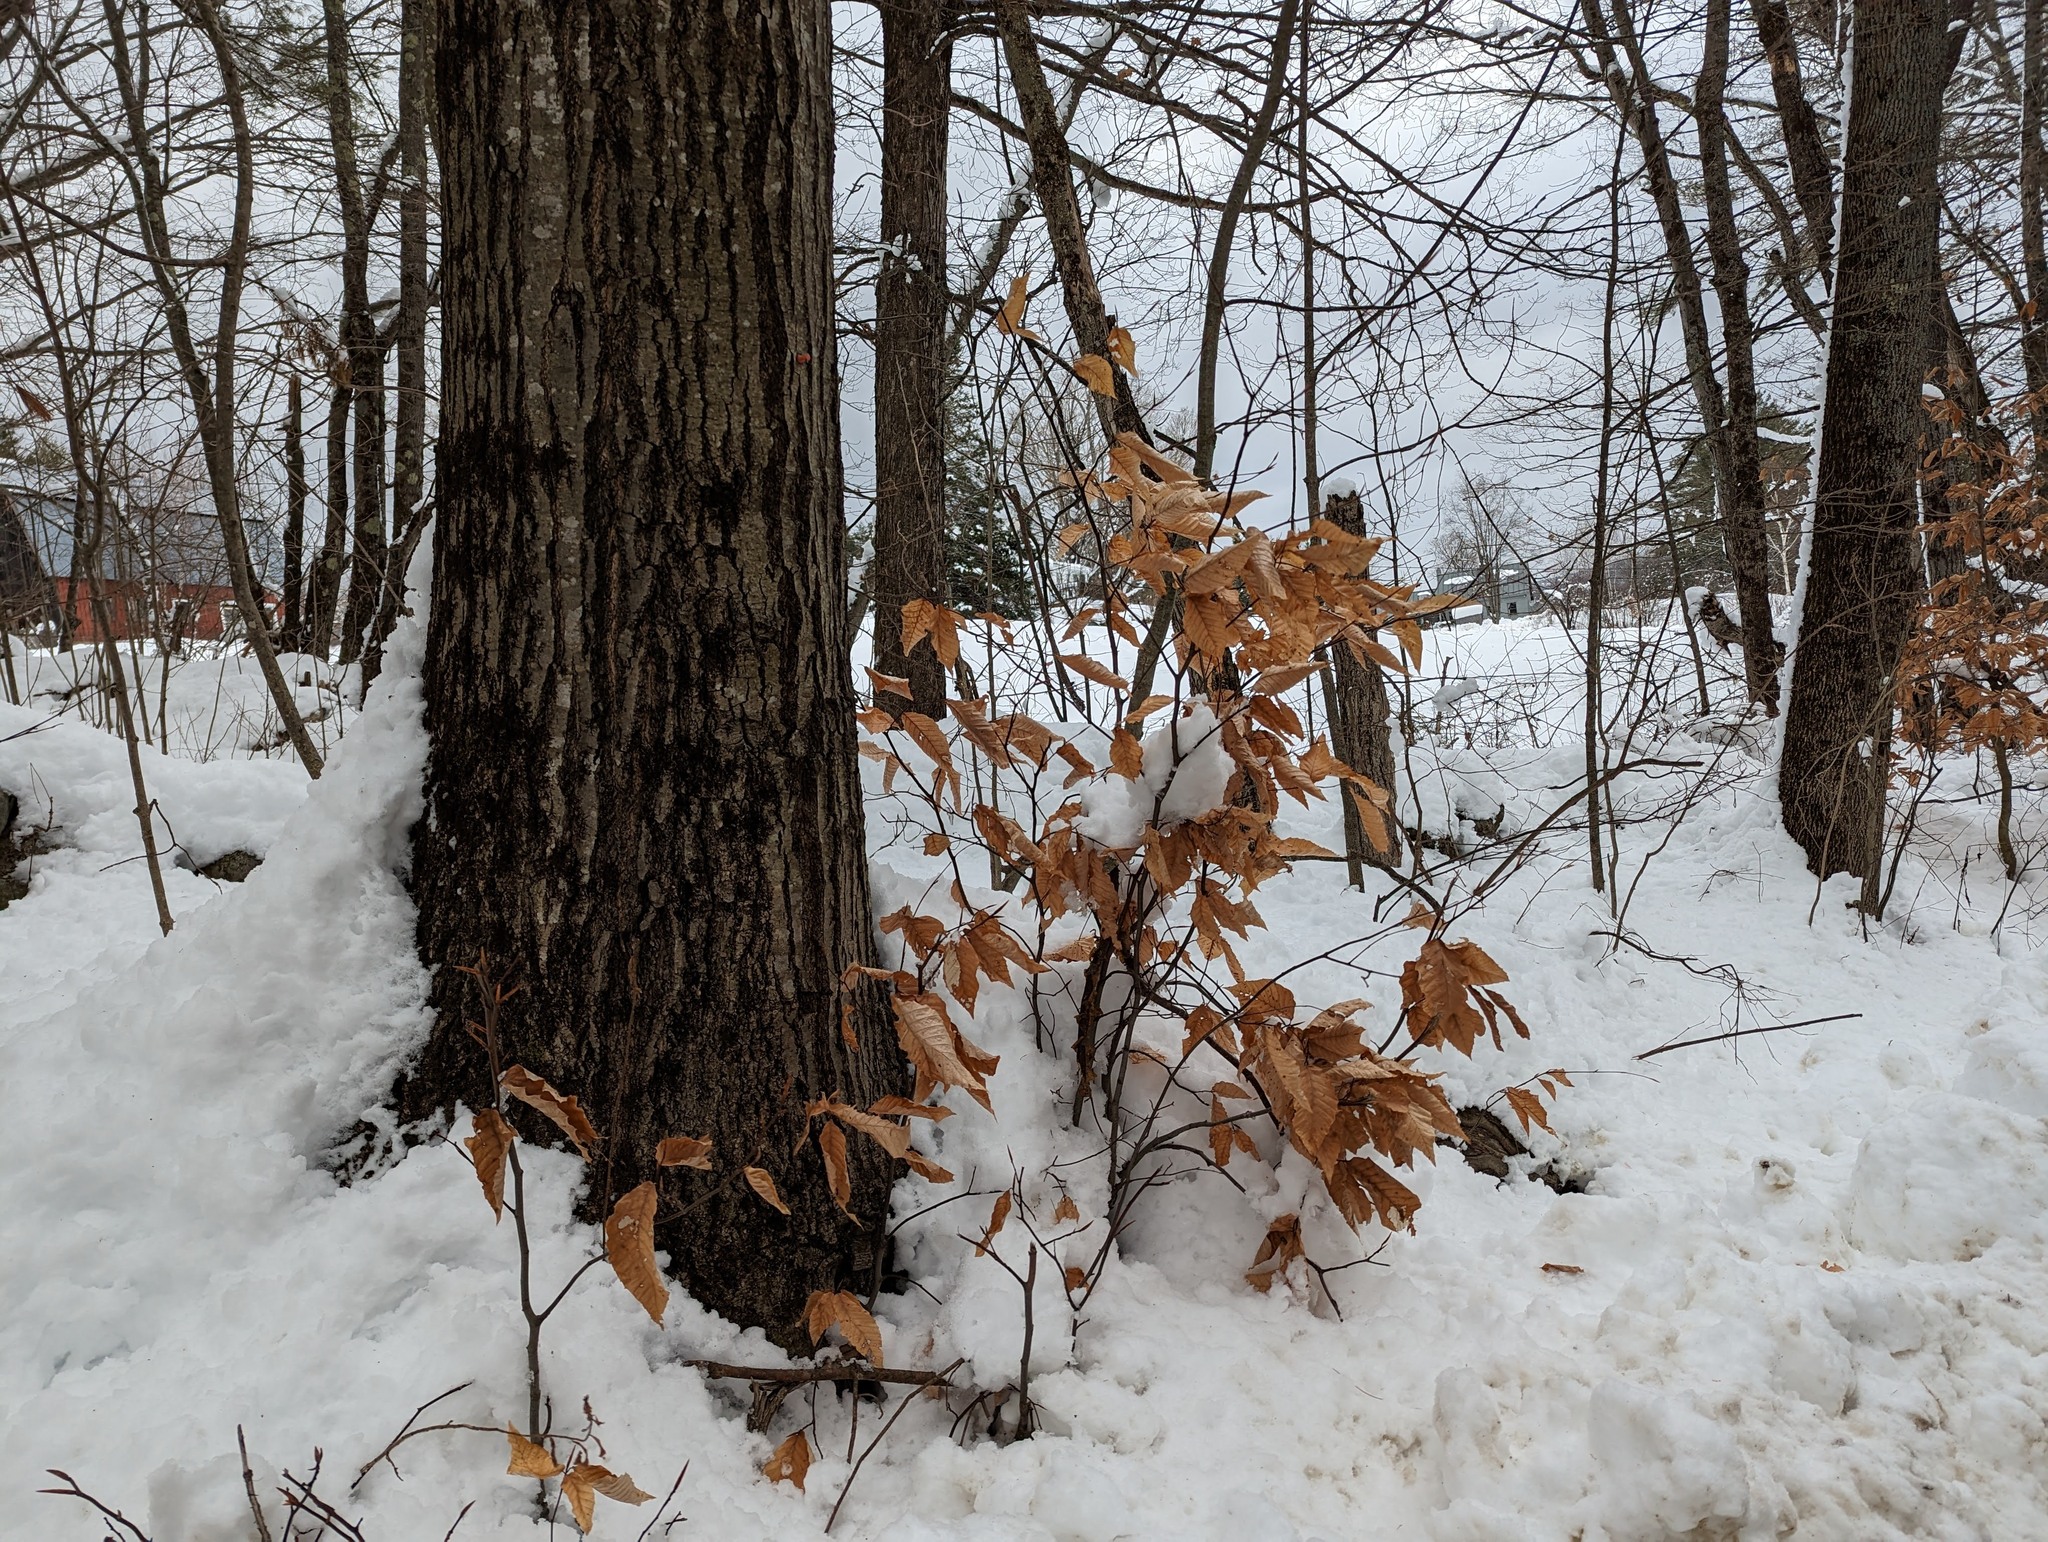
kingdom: Plantae
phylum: Tracheophyta
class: Magnoliopsida
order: Fagales
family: Fagaceae
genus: Fagus
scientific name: Fagus grandifolia
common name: American beech
